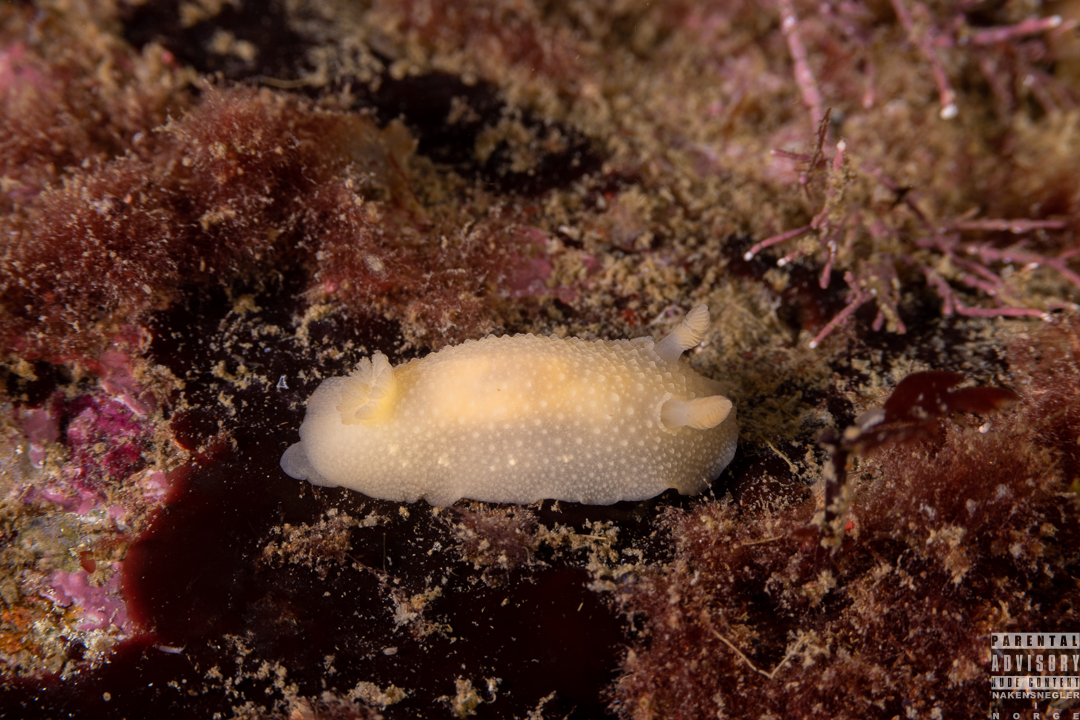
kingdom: Animalia
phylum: Mollusca
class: Gastropoda
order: Nudibranchia
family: Cadlinidae
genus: Cadlina
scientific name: Cadlina laevis
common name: White atlantic cadlina
